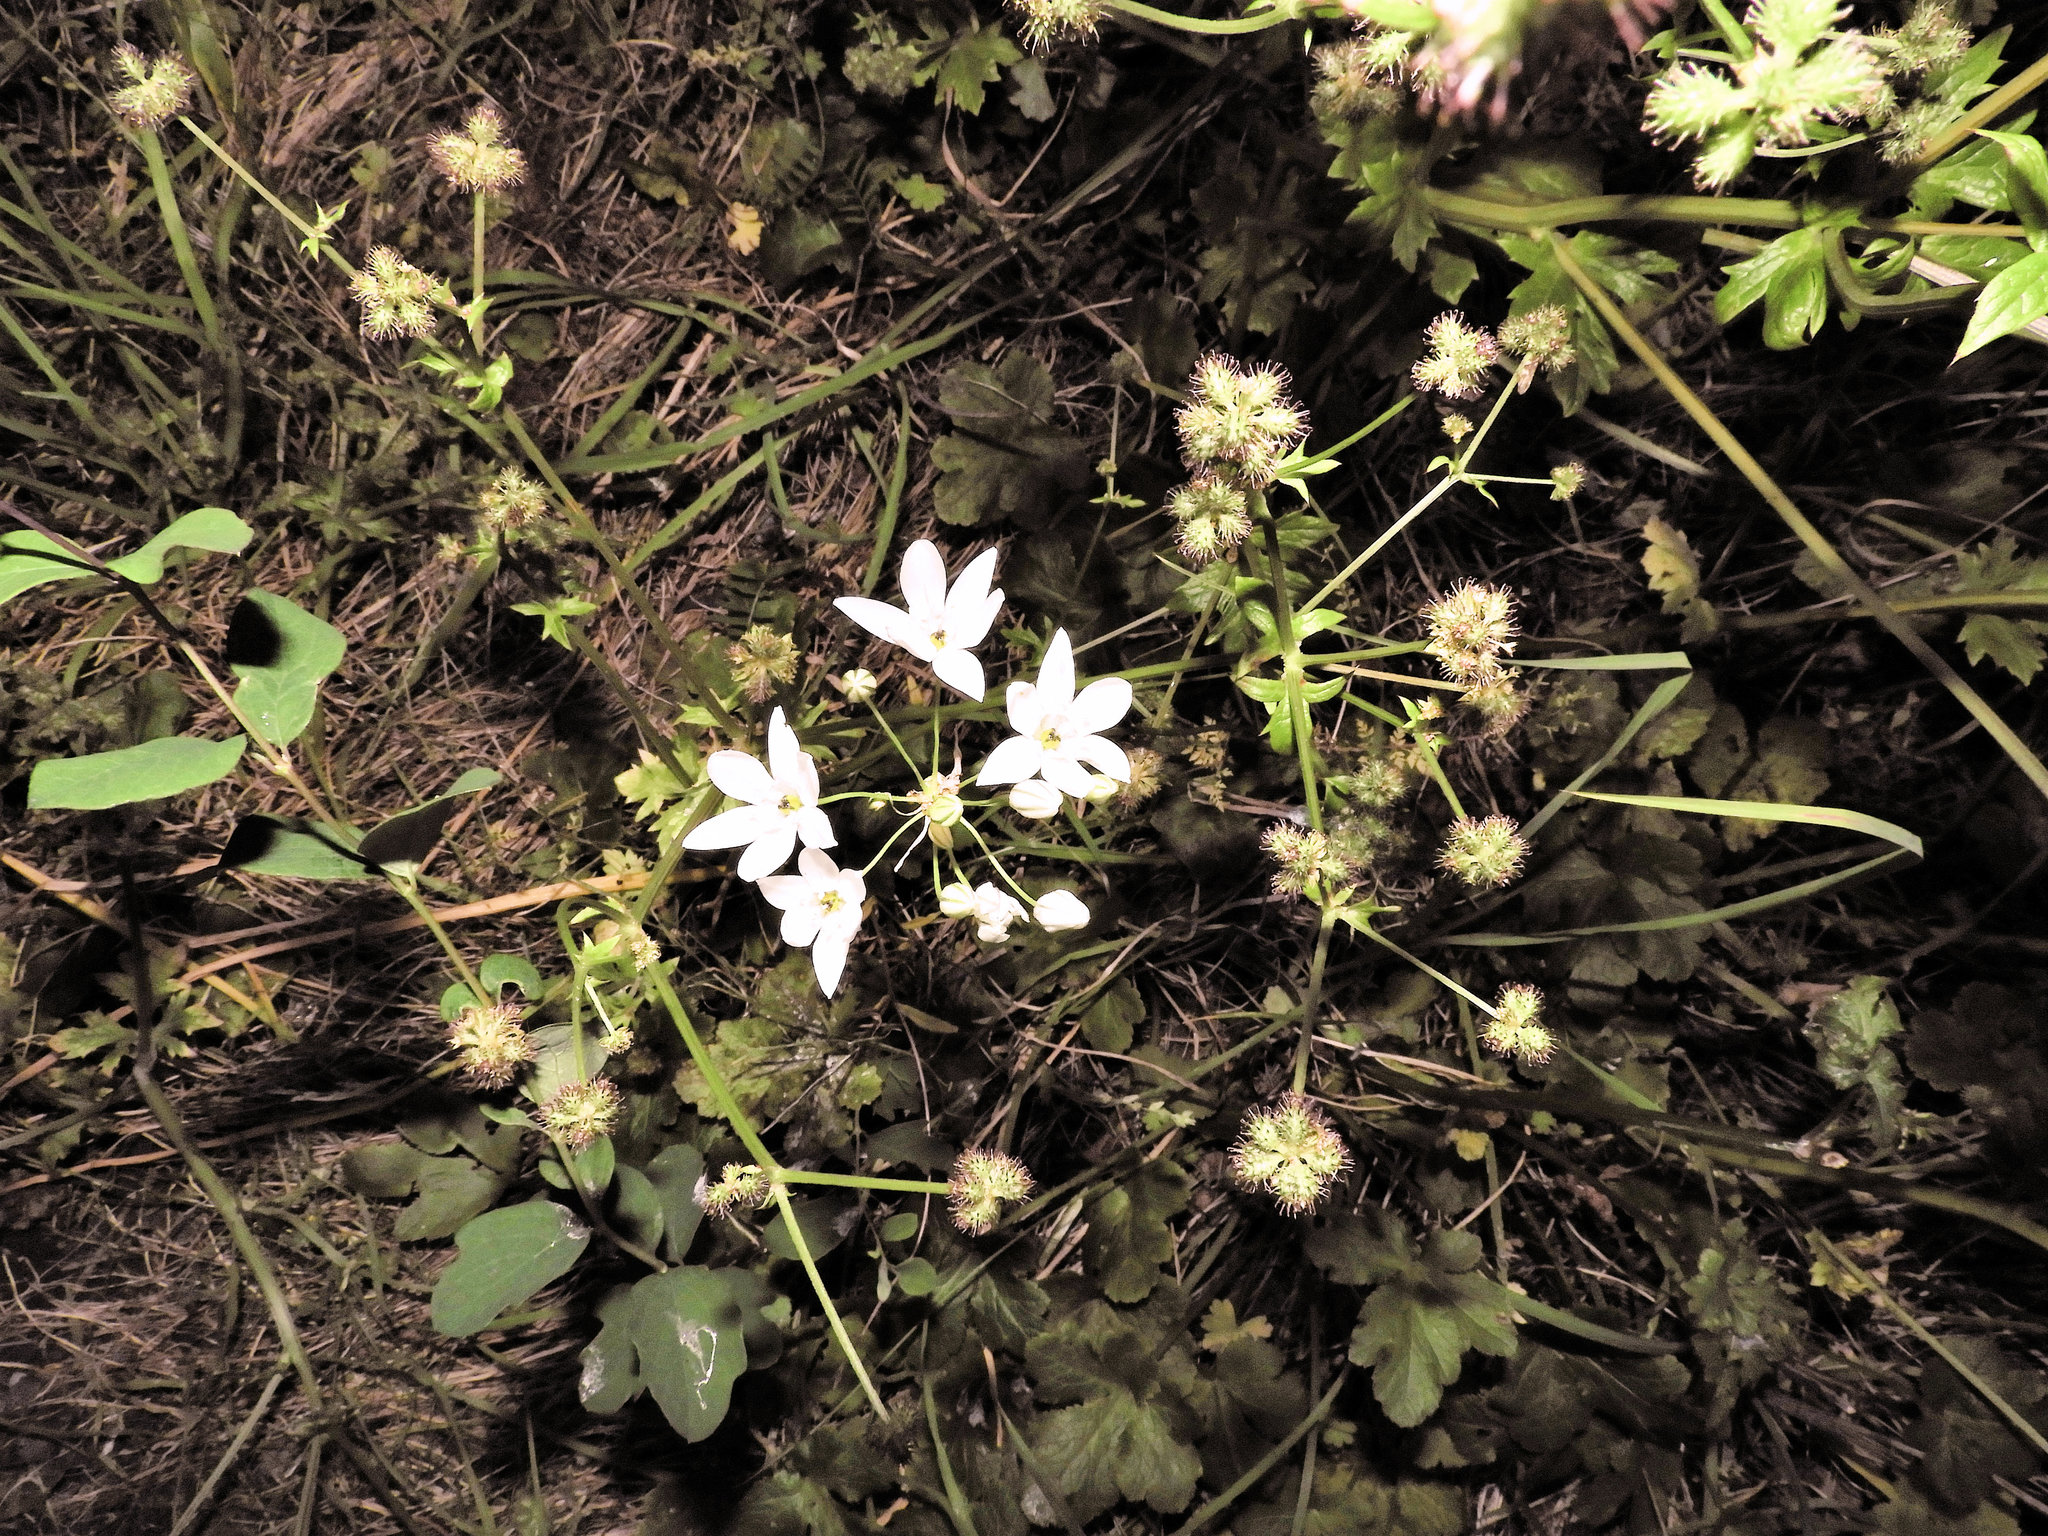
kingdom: Plantae
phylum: Tracheophyta
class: Liliopsida
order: Asparagales
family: Asparagaceae
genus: Triteleia
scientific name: Triteleia hyacinthina
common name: White brodiaea
